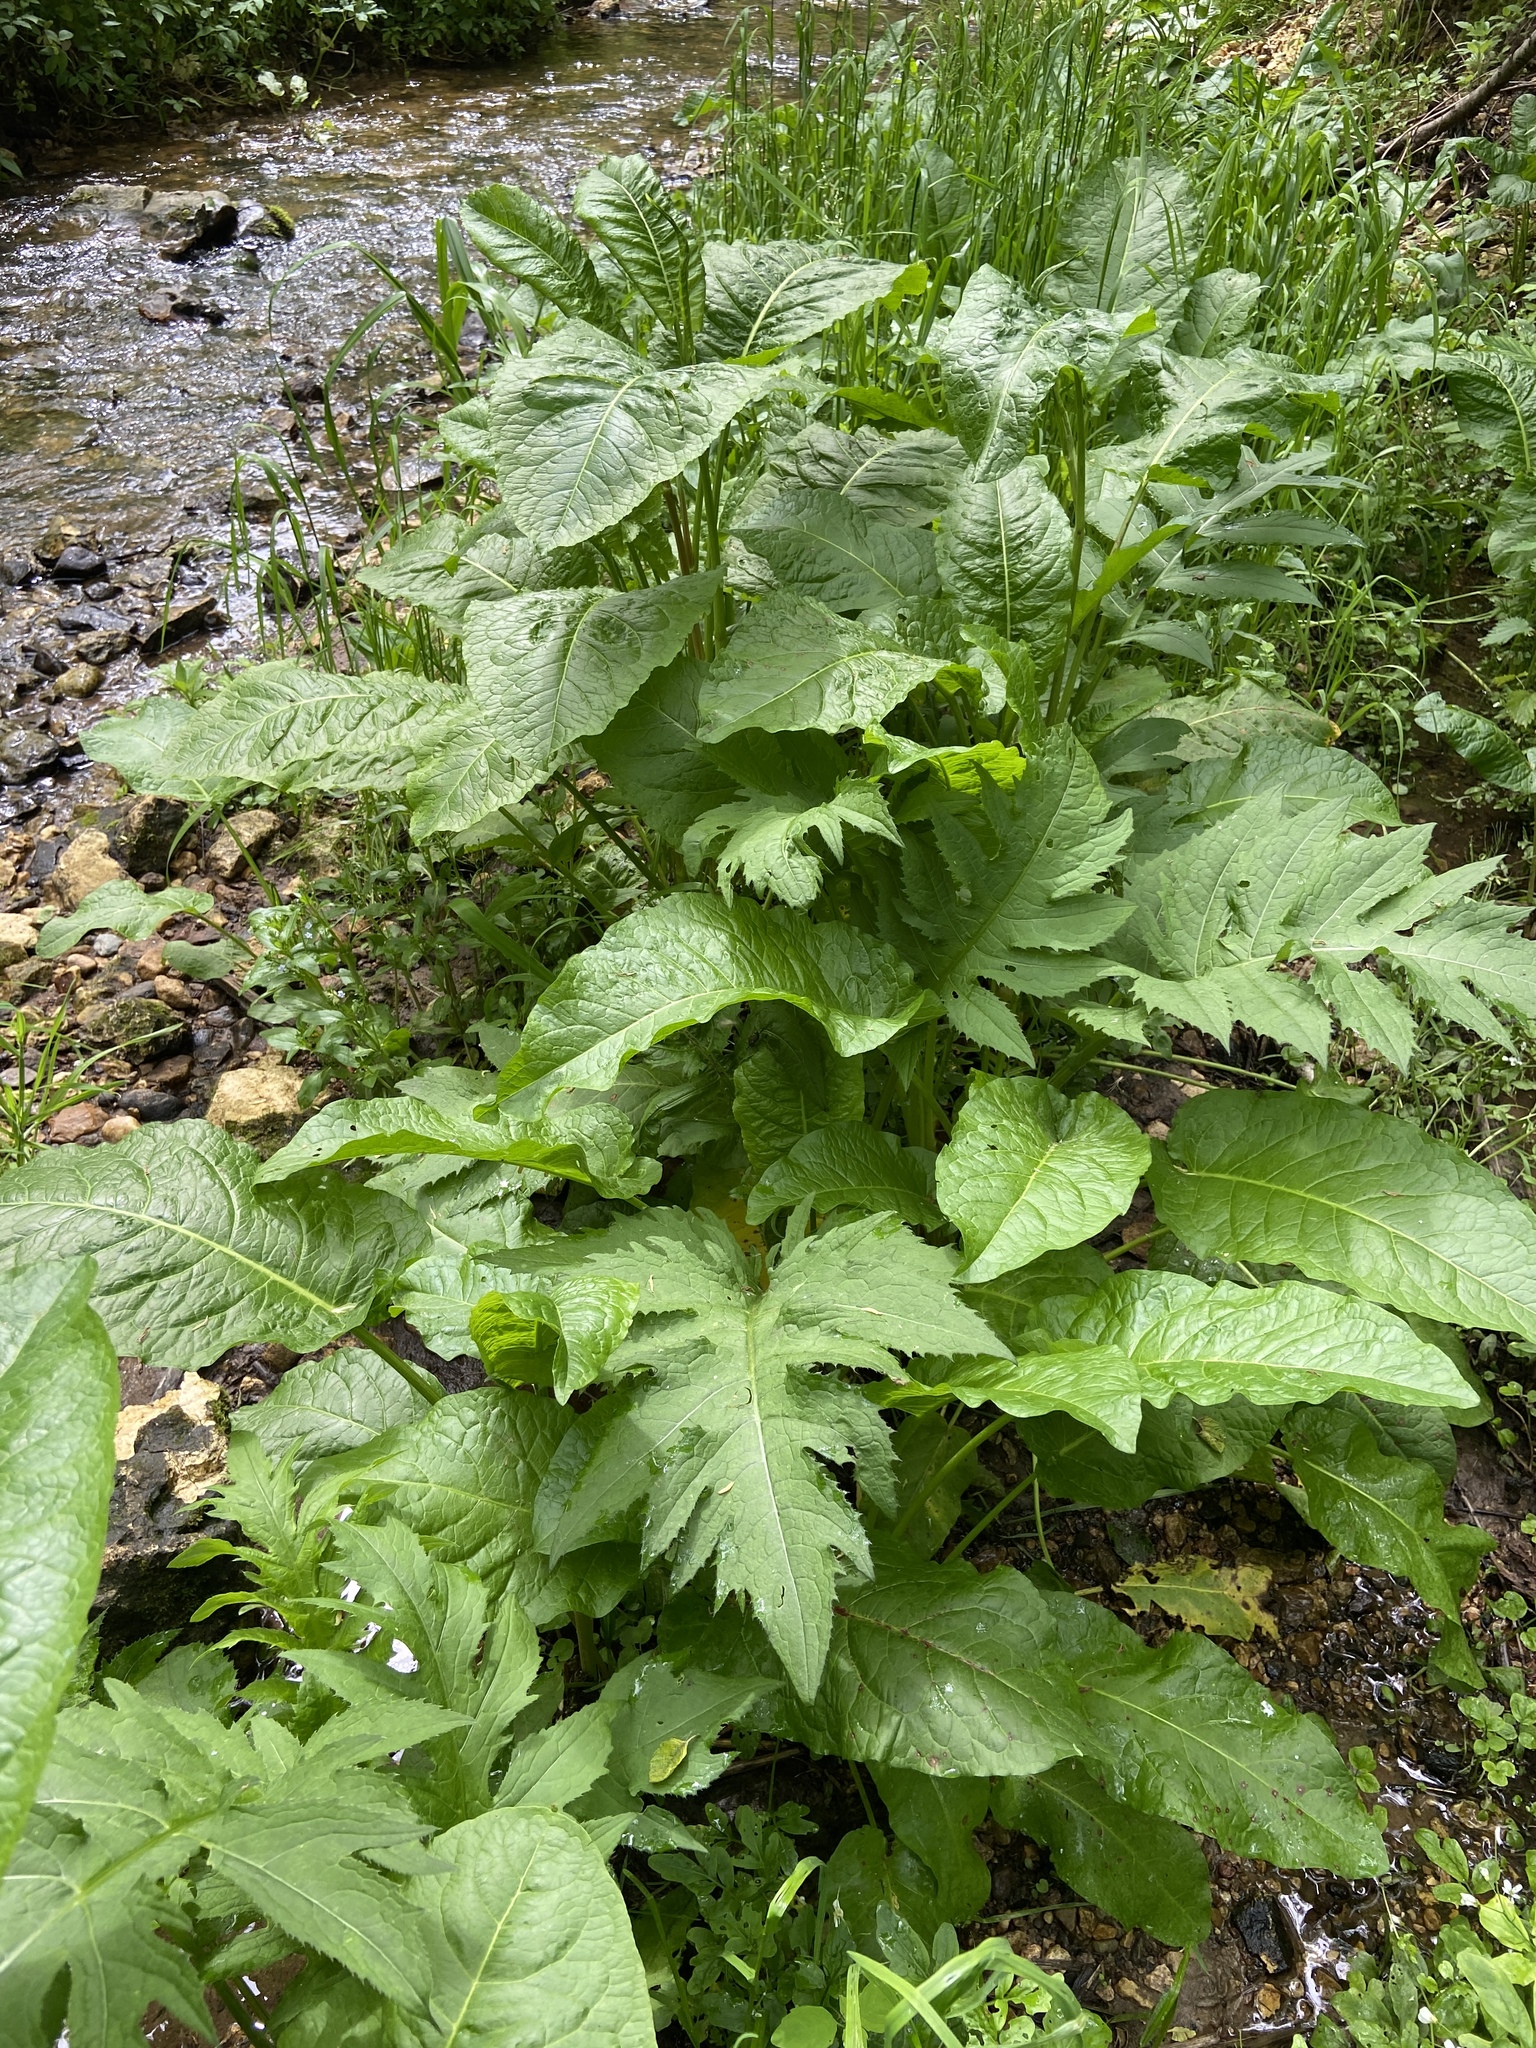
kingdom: Plantae
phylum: Tracheophyta
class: Magnoliopsida
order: Asterales
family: Asteraceae
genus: Cirsium
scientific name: Cirsium oleraceum
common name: Cabbage thistle
